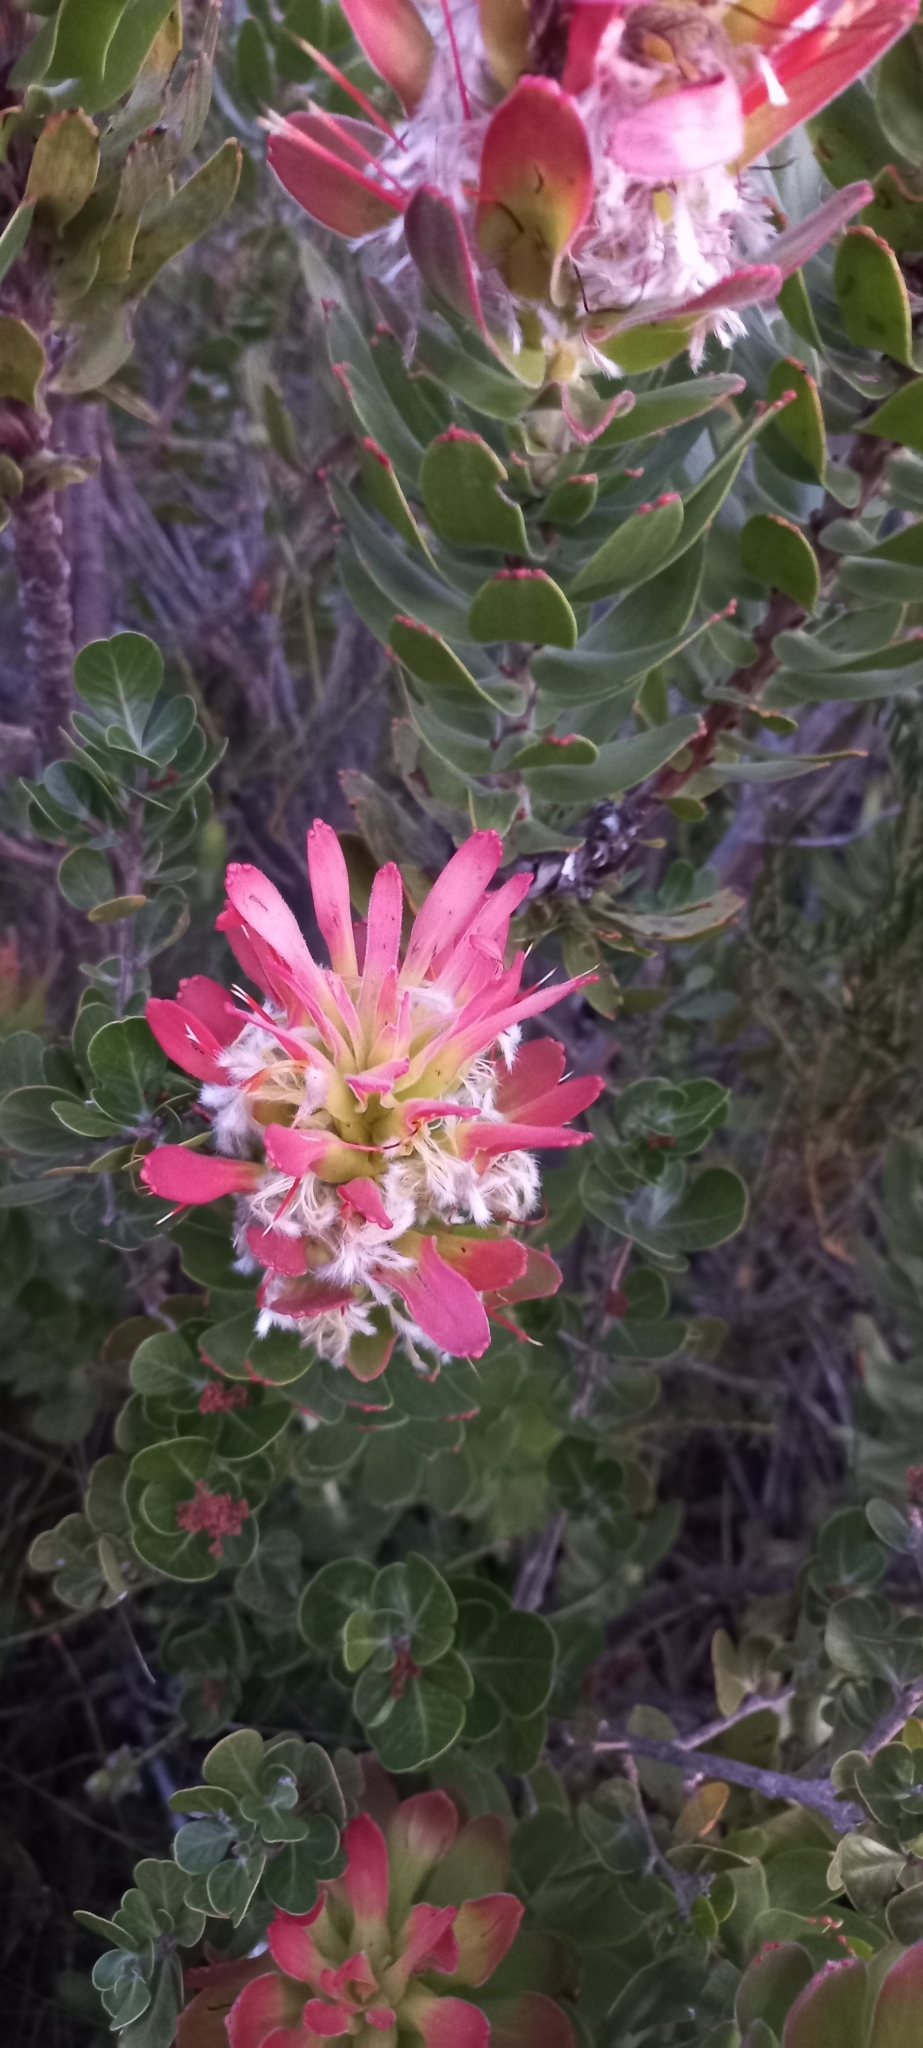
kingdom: Plantae
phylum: Tracheophyta
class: Magnoliopsida
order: Proteales
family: Proteaceae
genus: Mimetes
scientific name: Mimetes cucullatus
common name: Common pagoda
